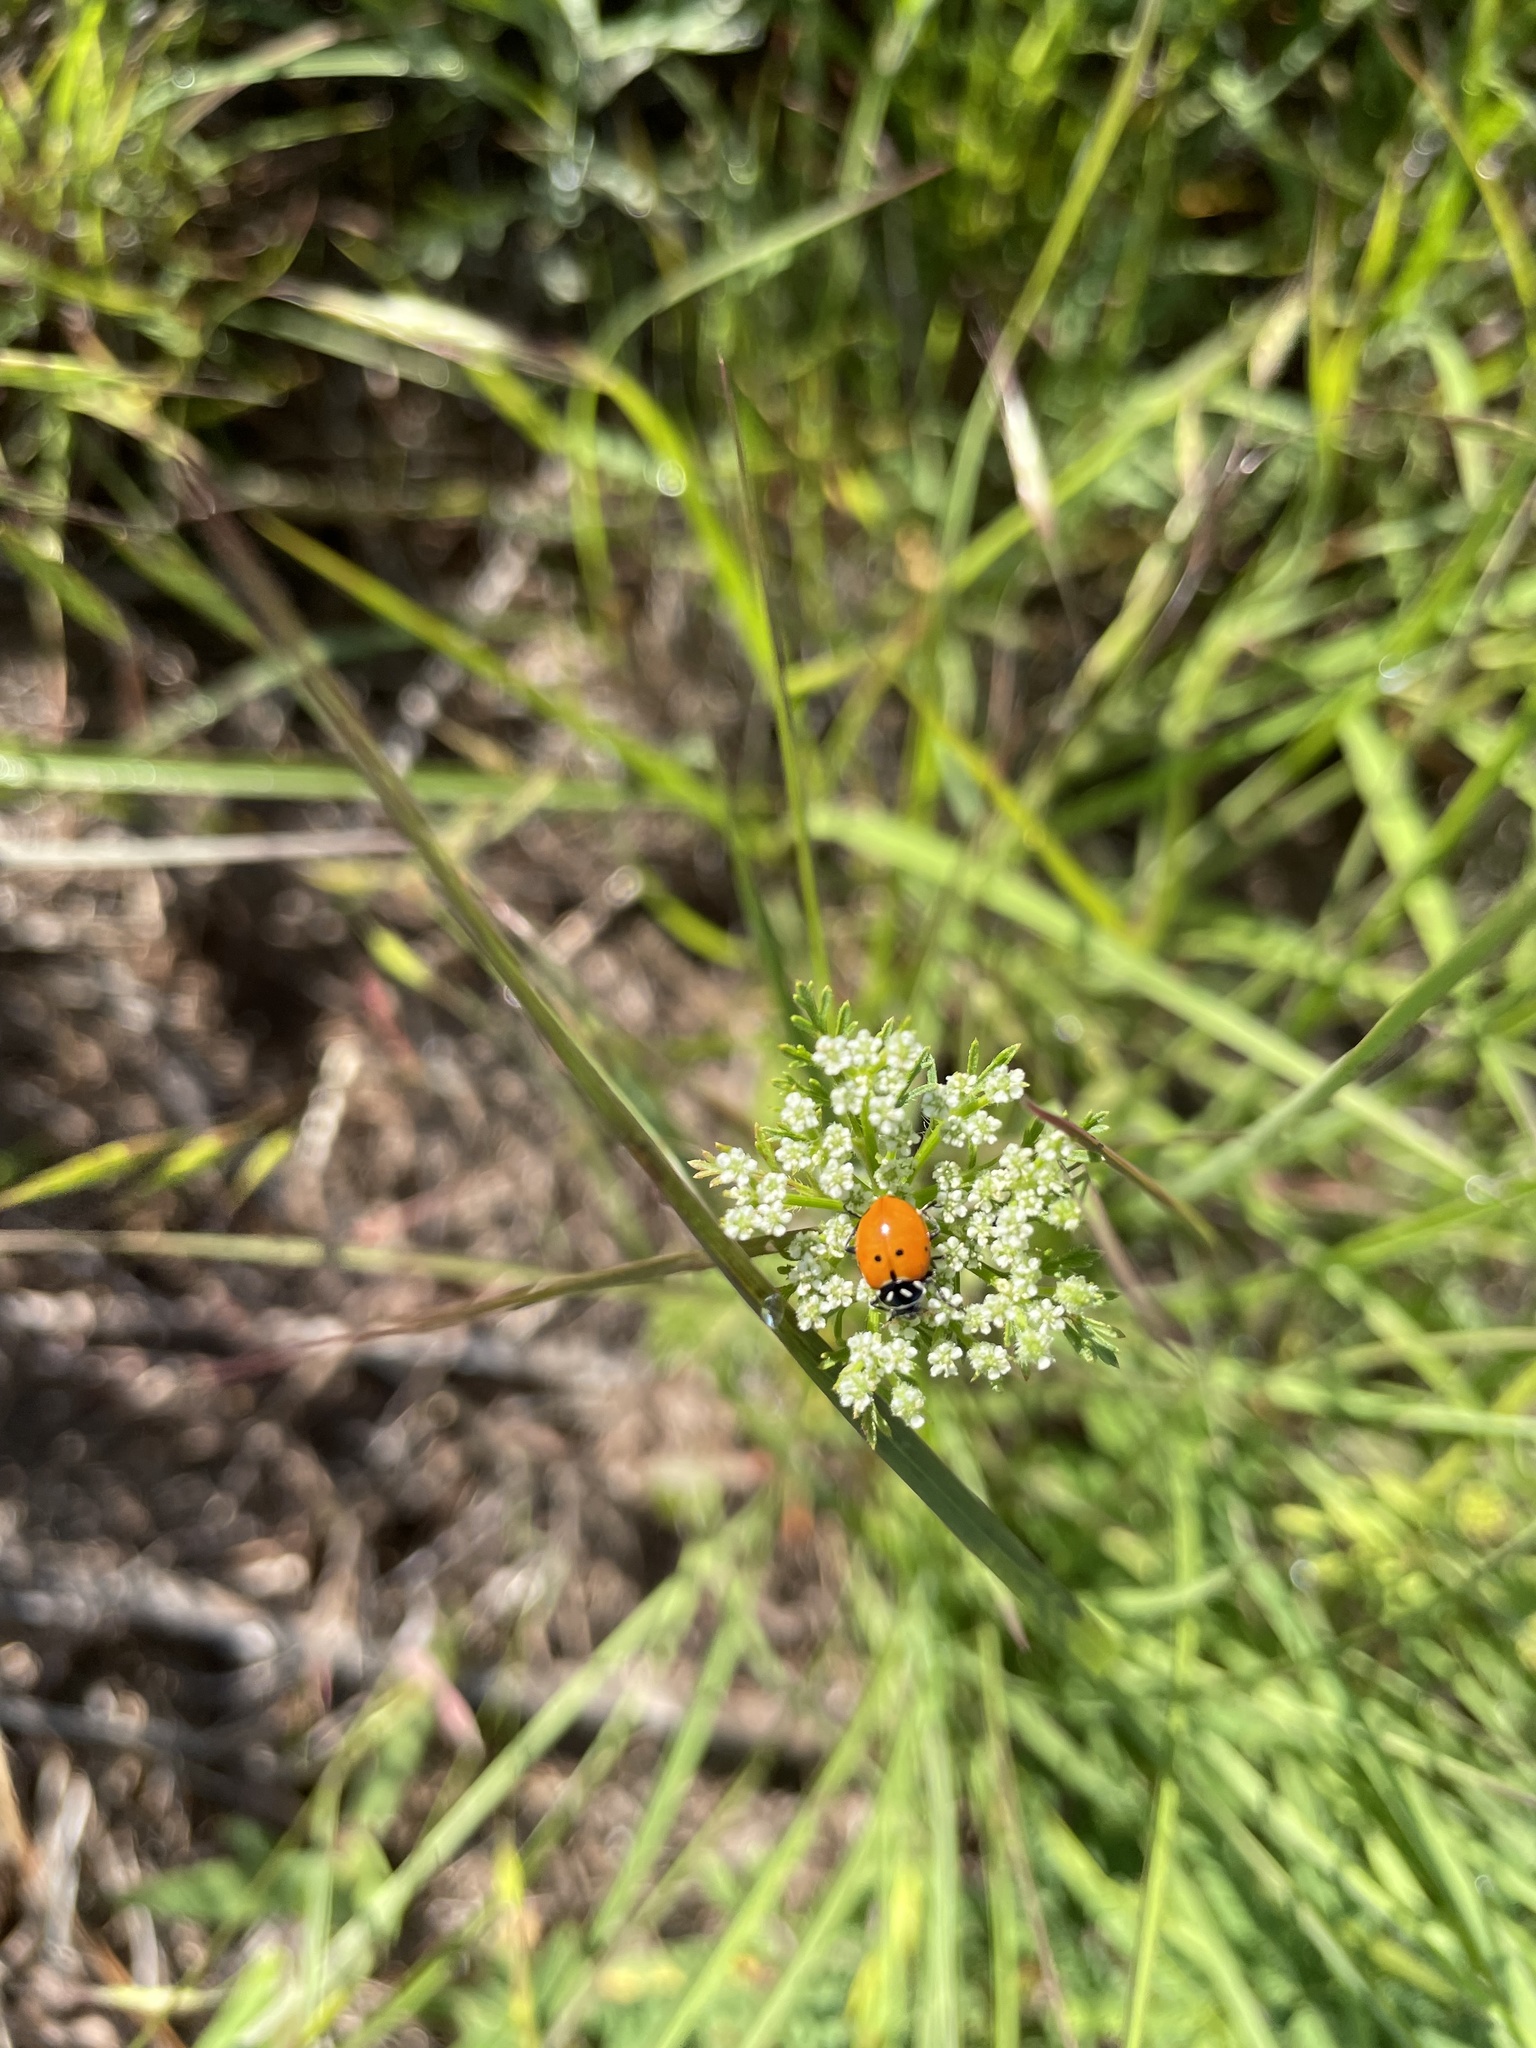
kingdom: Animalia
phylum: Arthropoda
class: Insecta
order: Coleoptera
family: Coccinellidae
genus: Hippodamia
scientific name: Hippodamia convergens
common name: Convergent lady beetle
